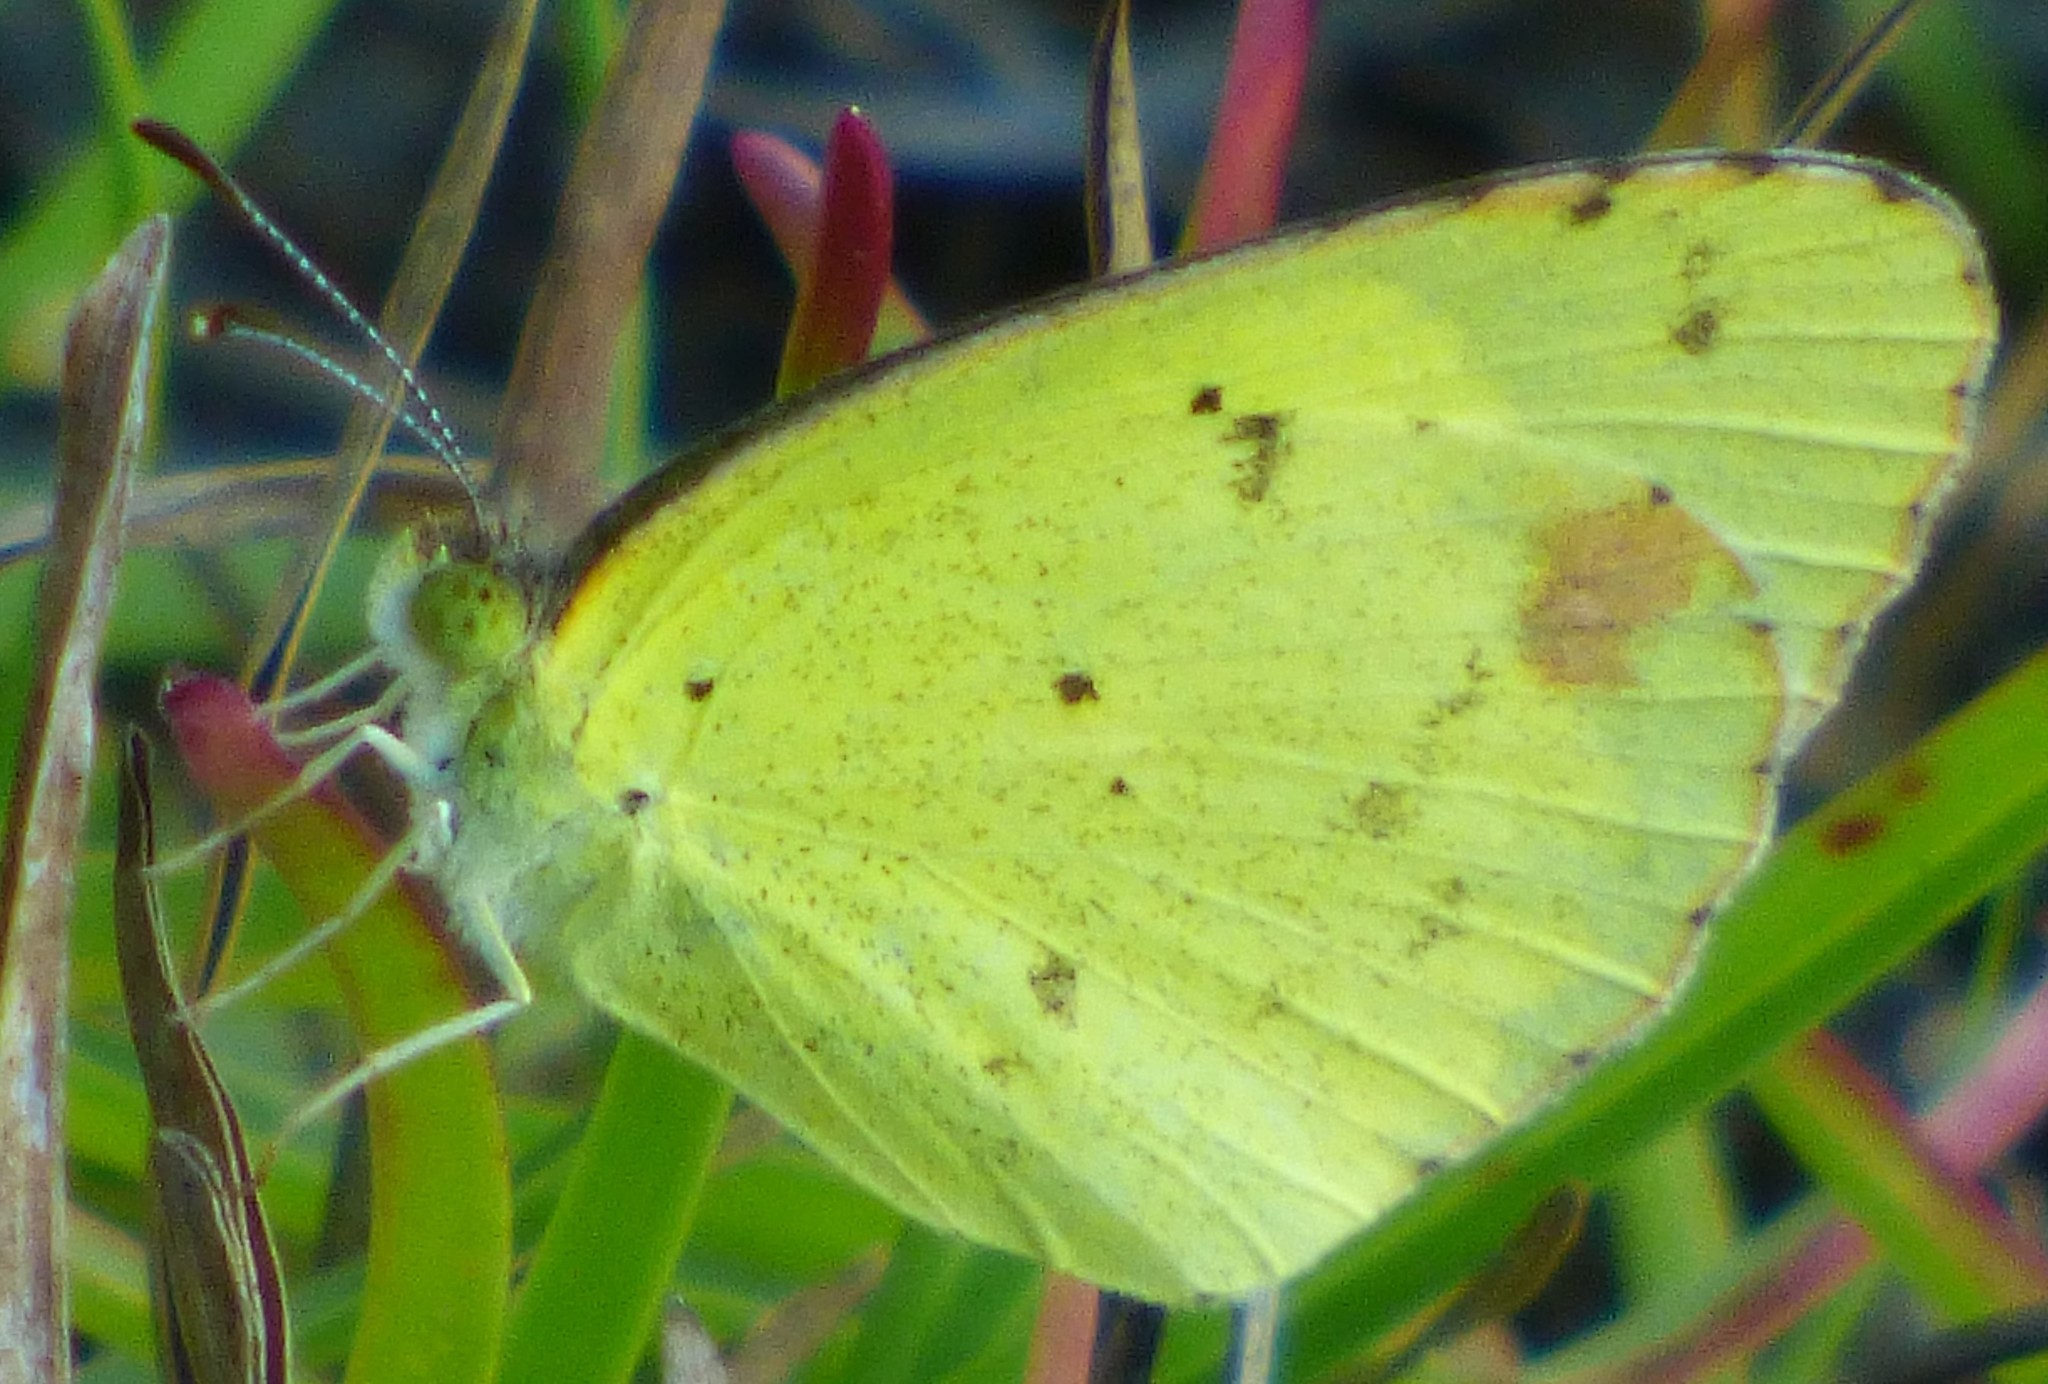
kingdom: Animalia
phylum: Arthropoda
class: Insecta
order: Lepidoptera
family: Pieridae
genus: Pyrisitia
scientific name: Pyrisitia lisa
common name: Little yellow
